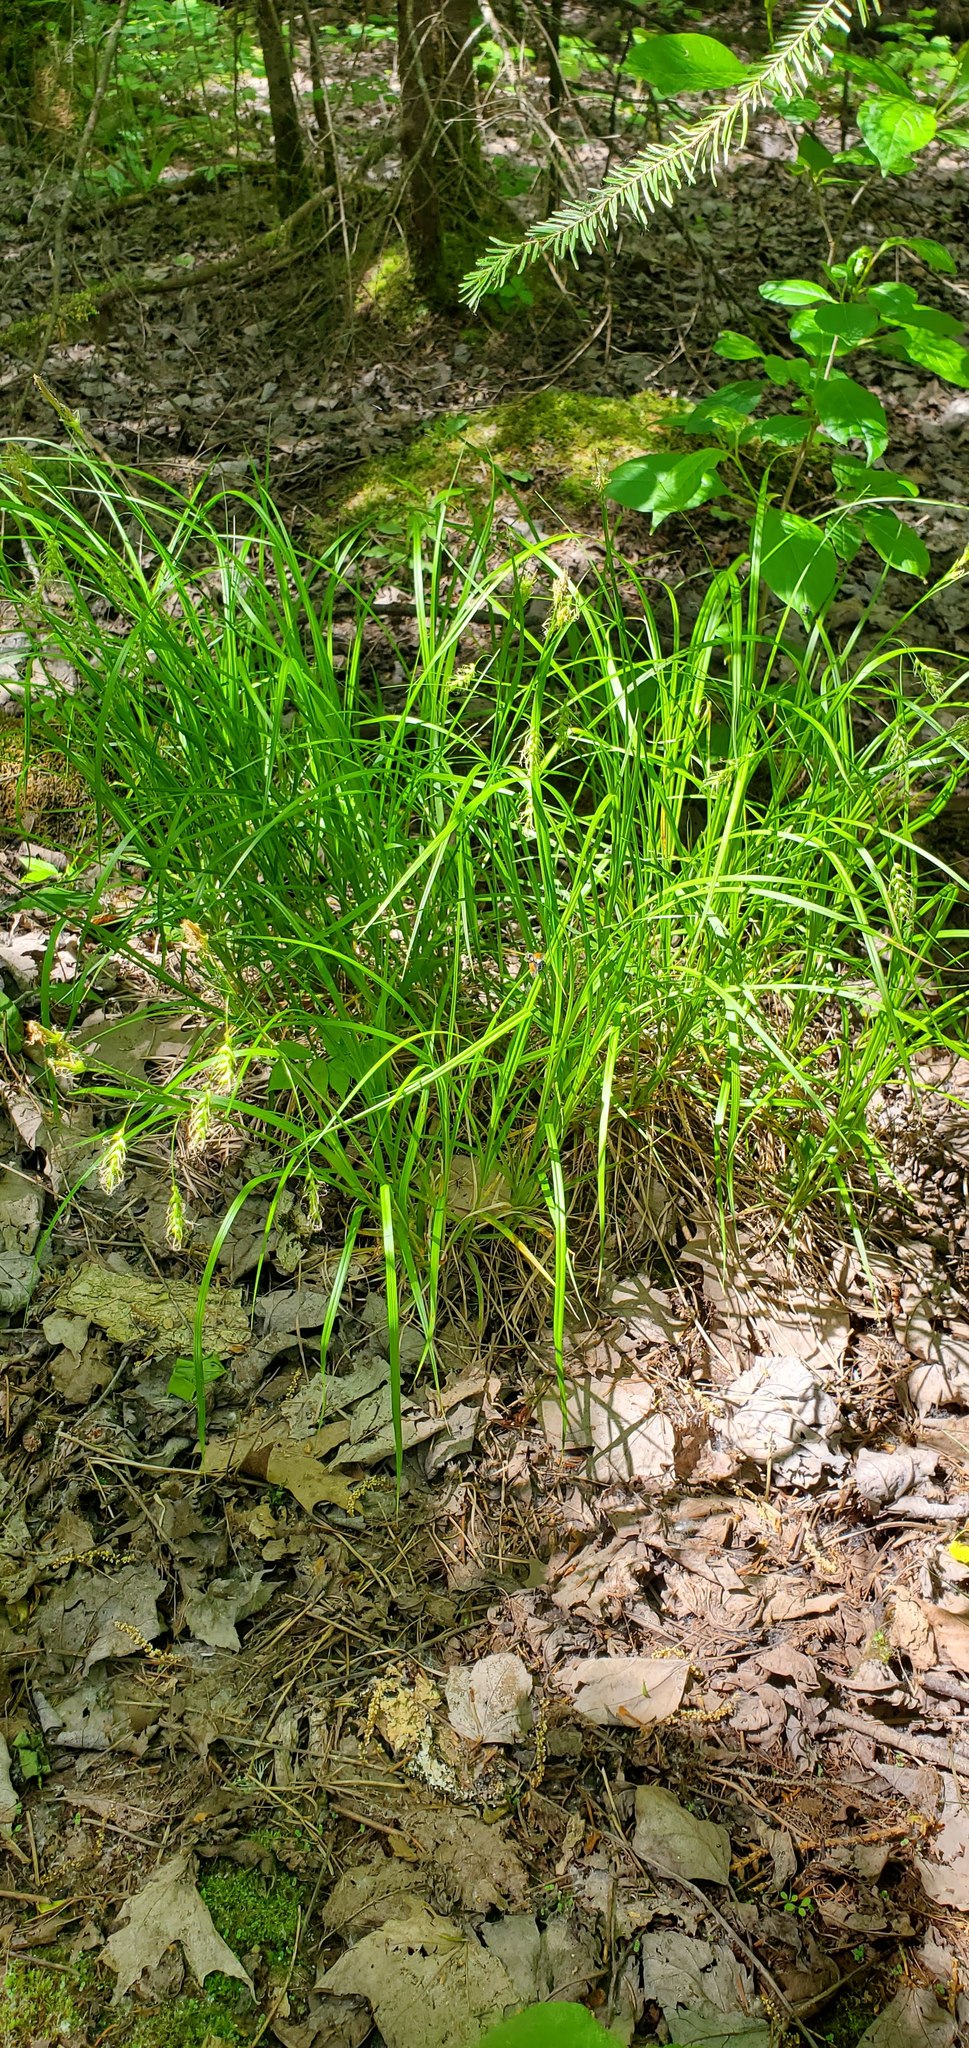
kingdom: Plantae
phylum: Tracheophyta
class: Liliopsida
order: Poales
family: Cyperaceae
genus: Carex
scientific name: Carex sprengelii
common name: Long-beaked sedge
